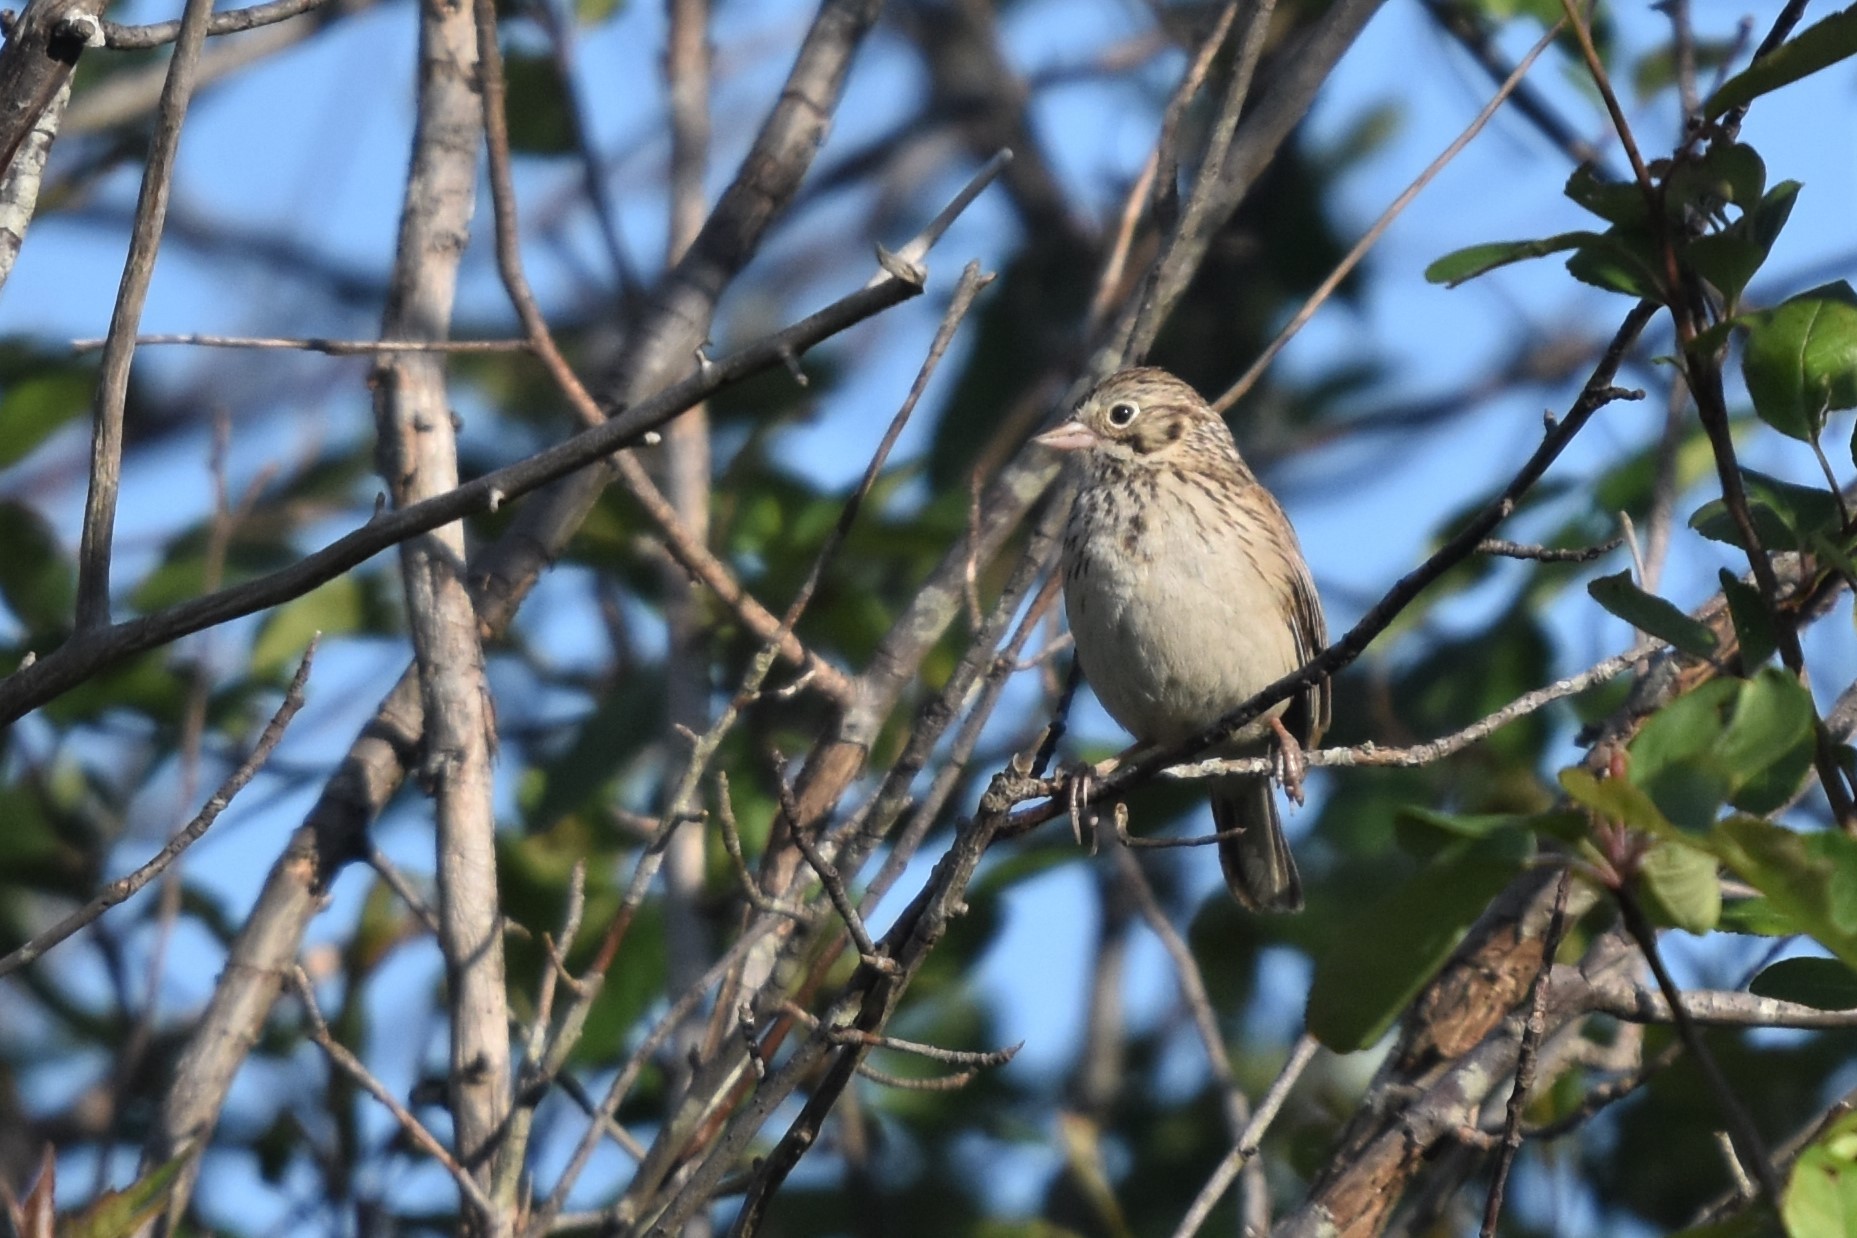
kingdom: Animalia
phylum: Chordata
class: Aves
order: Passeriformes
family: Passerellidae
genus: Pooecetes
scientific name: Pooecetes gramineus
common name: Vesper sparrow
